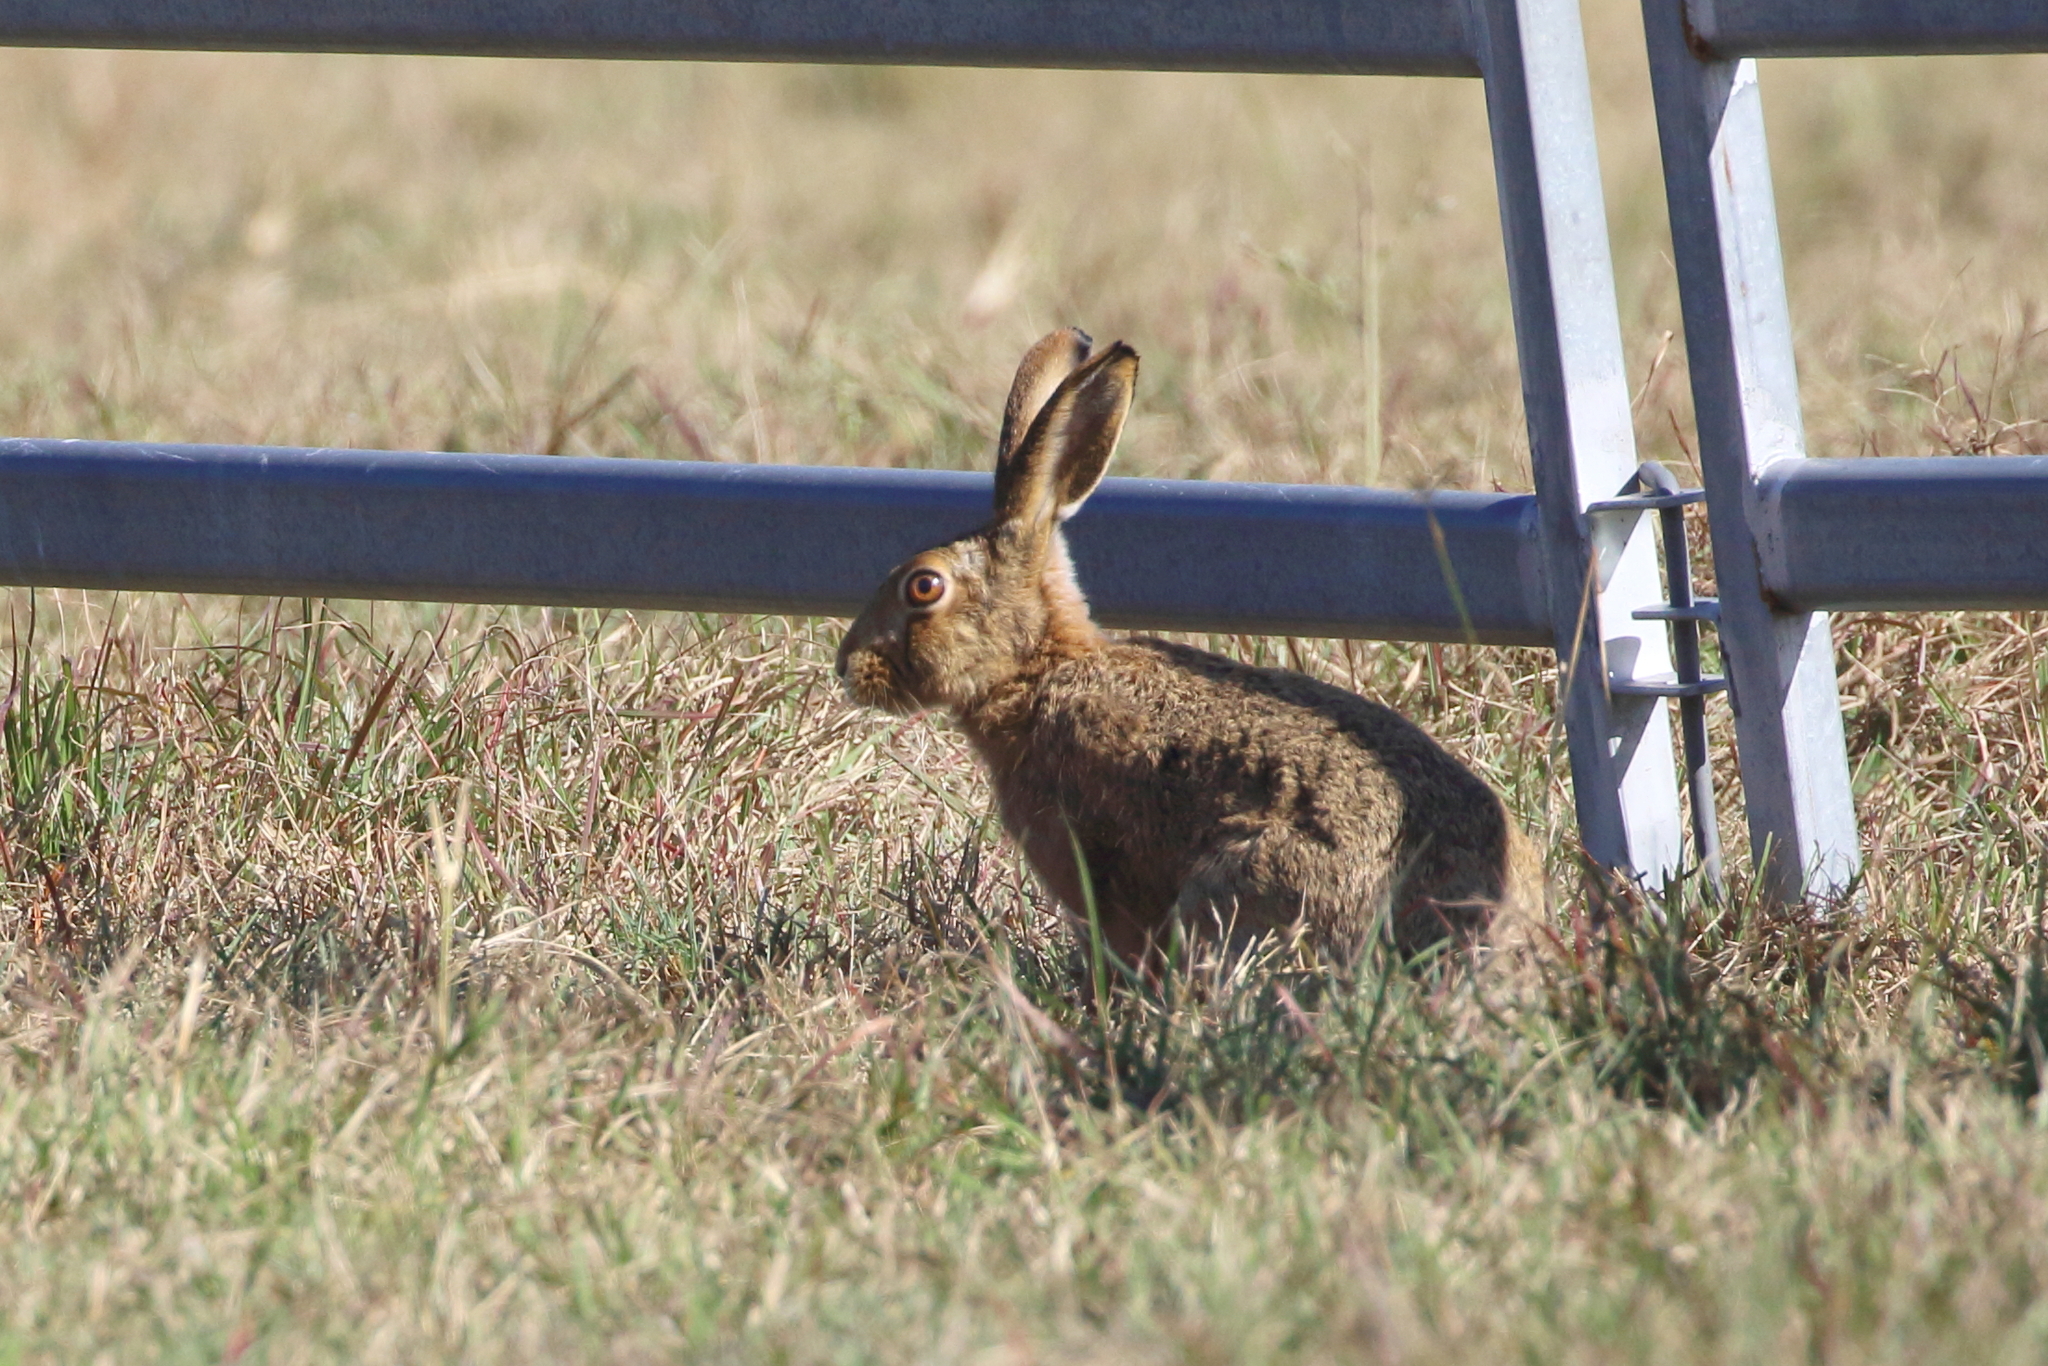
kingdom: Animalia
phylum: Chordata
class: Mammalia
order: Lagomorpha
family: Leporidae
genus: Lepus
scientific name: Lepus europaeus
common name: European hare
